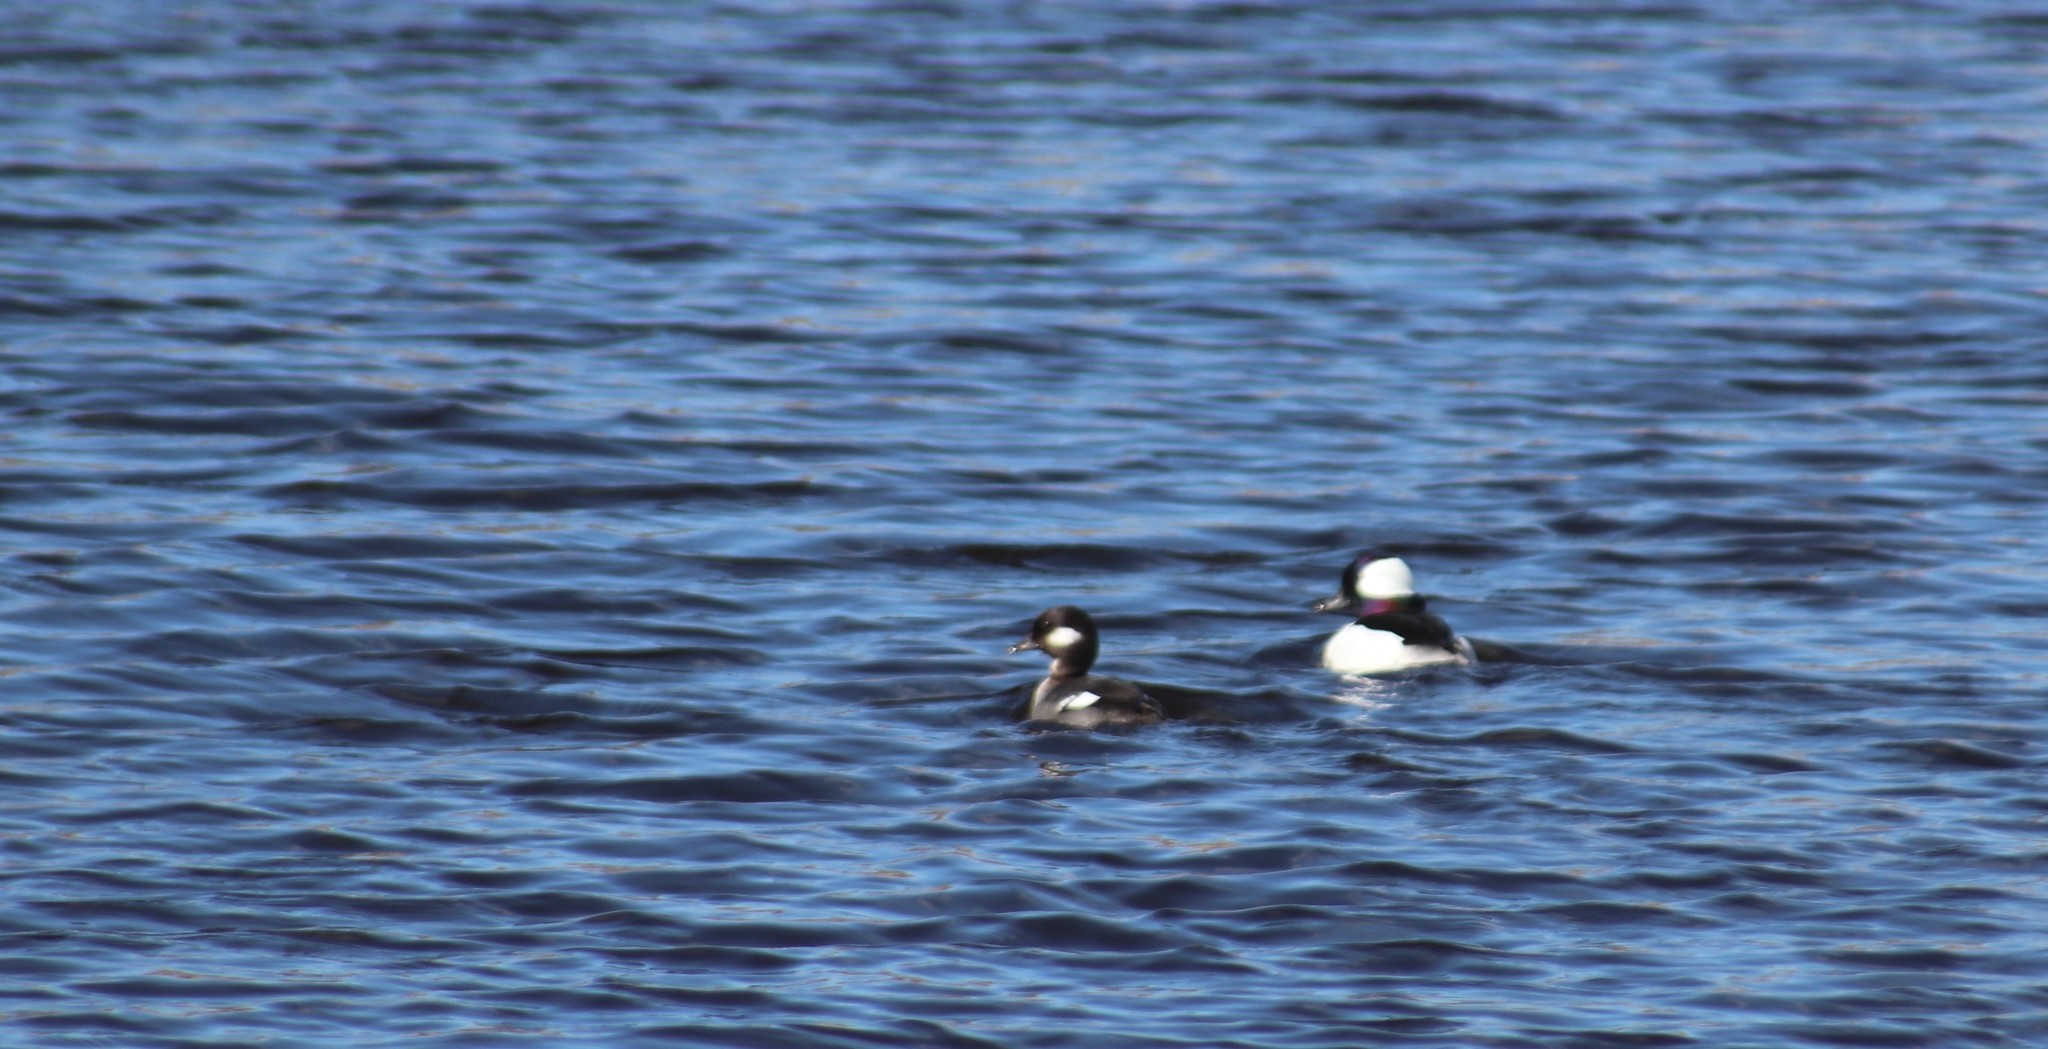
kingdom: Animalia
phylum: Chordata
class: Aves
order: Anseriformes
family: Anatidae
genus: Bucephala
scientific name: Bucephala albeola
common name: Bufflehead
